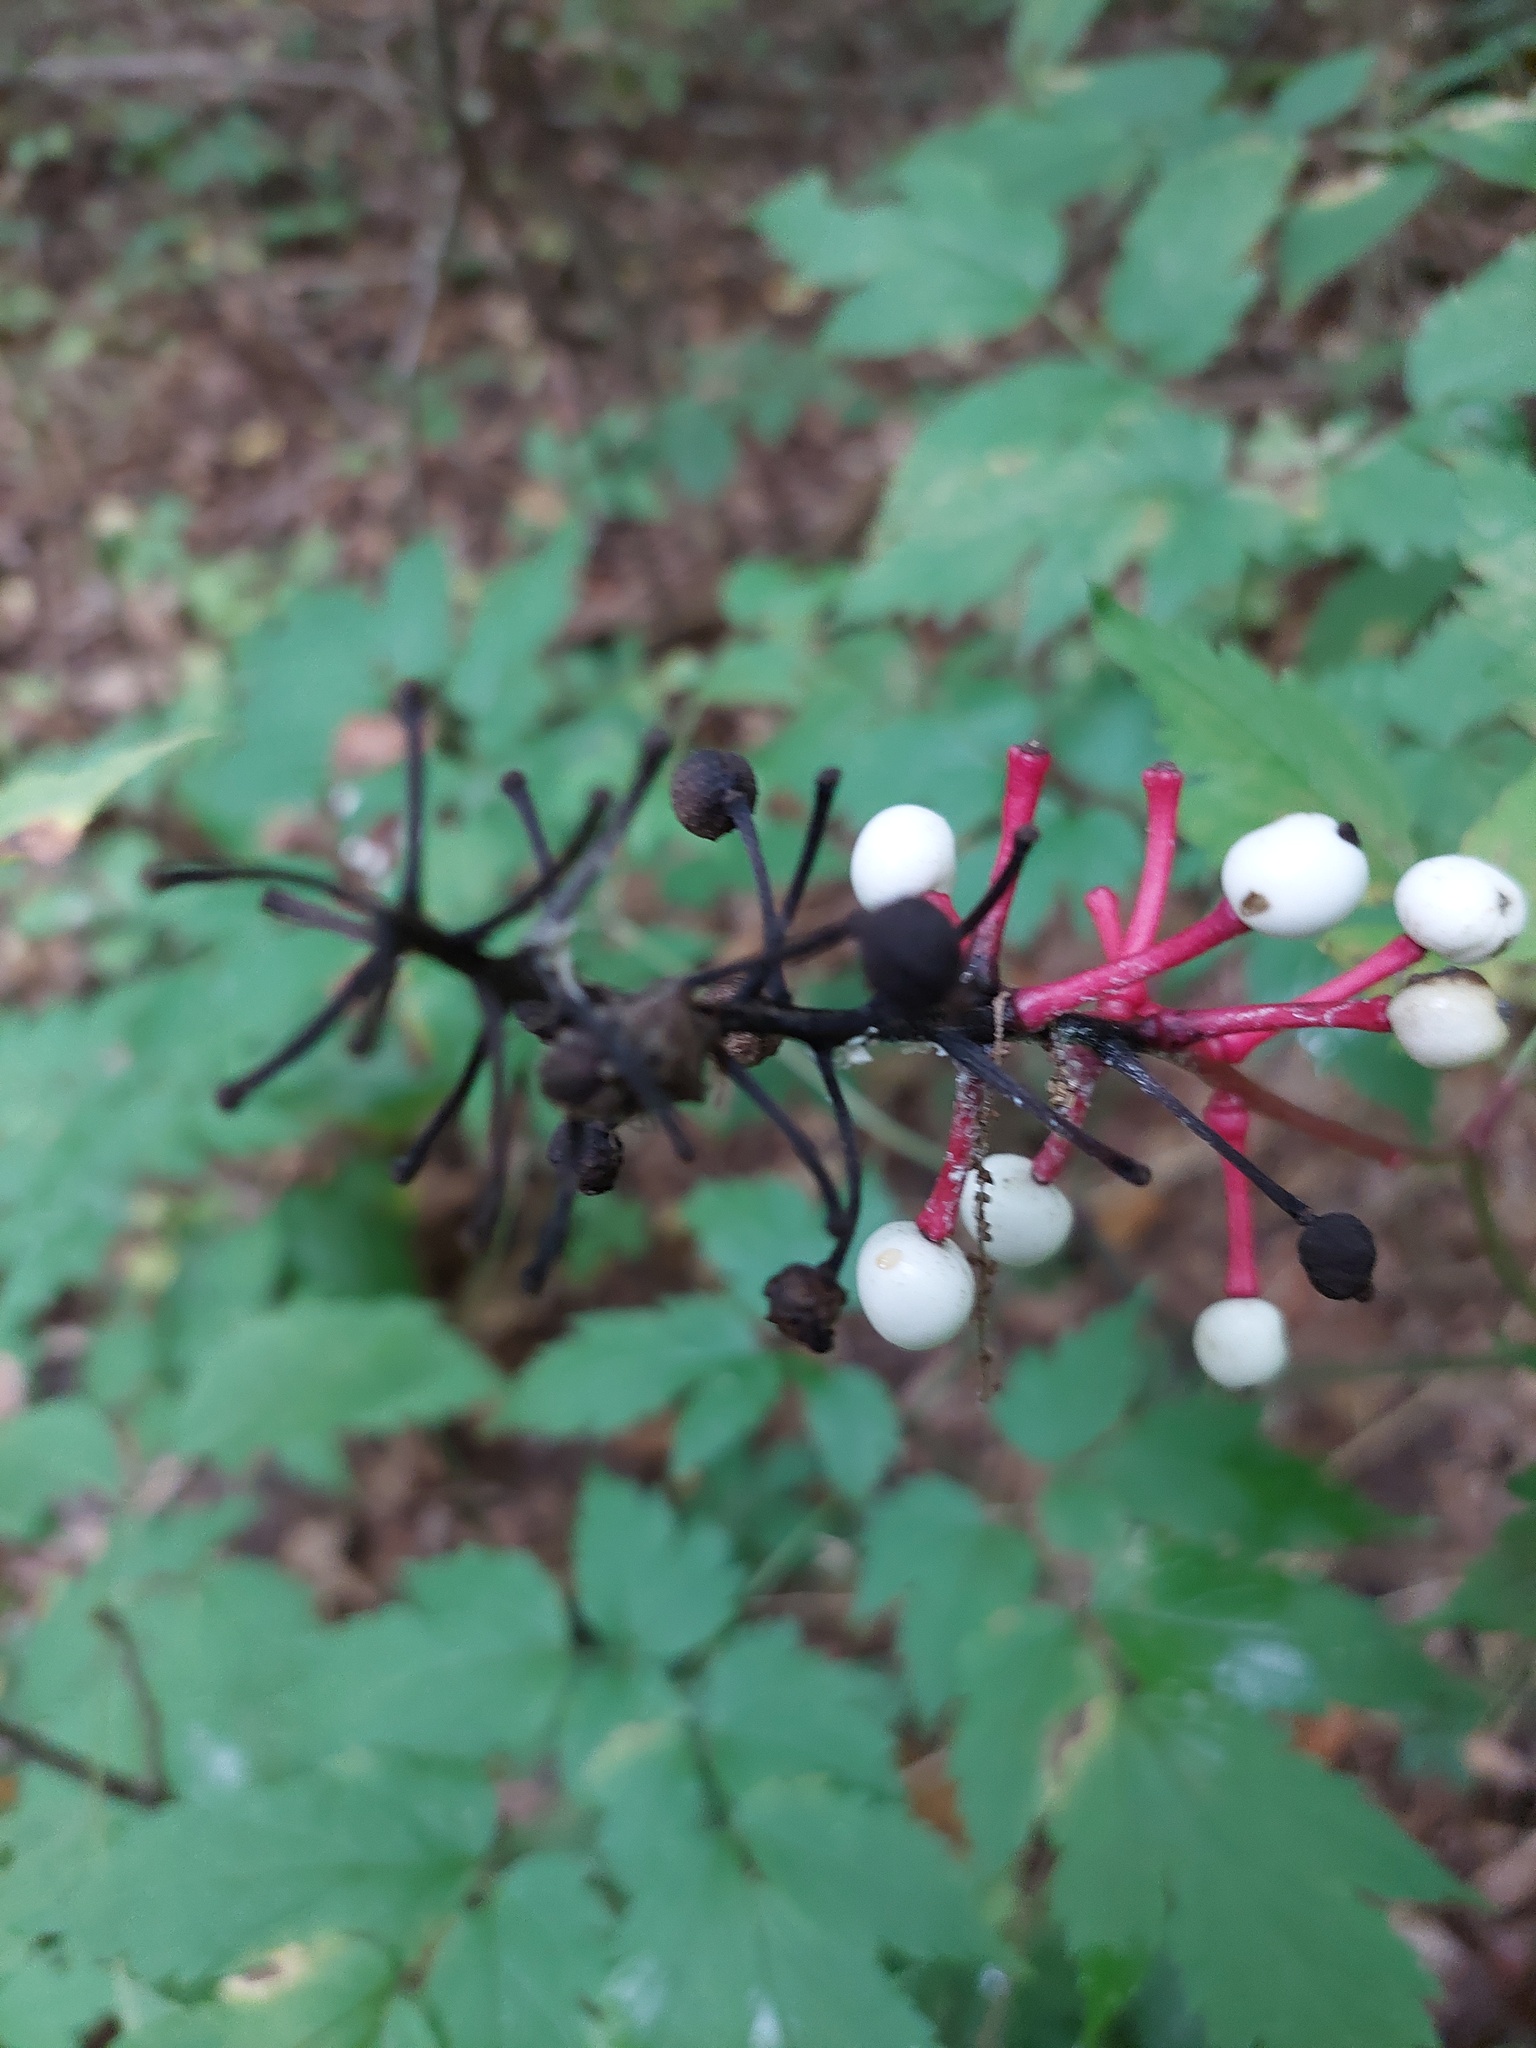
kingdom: Plantae
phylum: Tracheophyta
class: Magnoliopsida
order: Ranunculales
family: Ranunculaceae
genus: Actaea
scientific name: Actaea pachypoda
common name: Doll's-eyes
